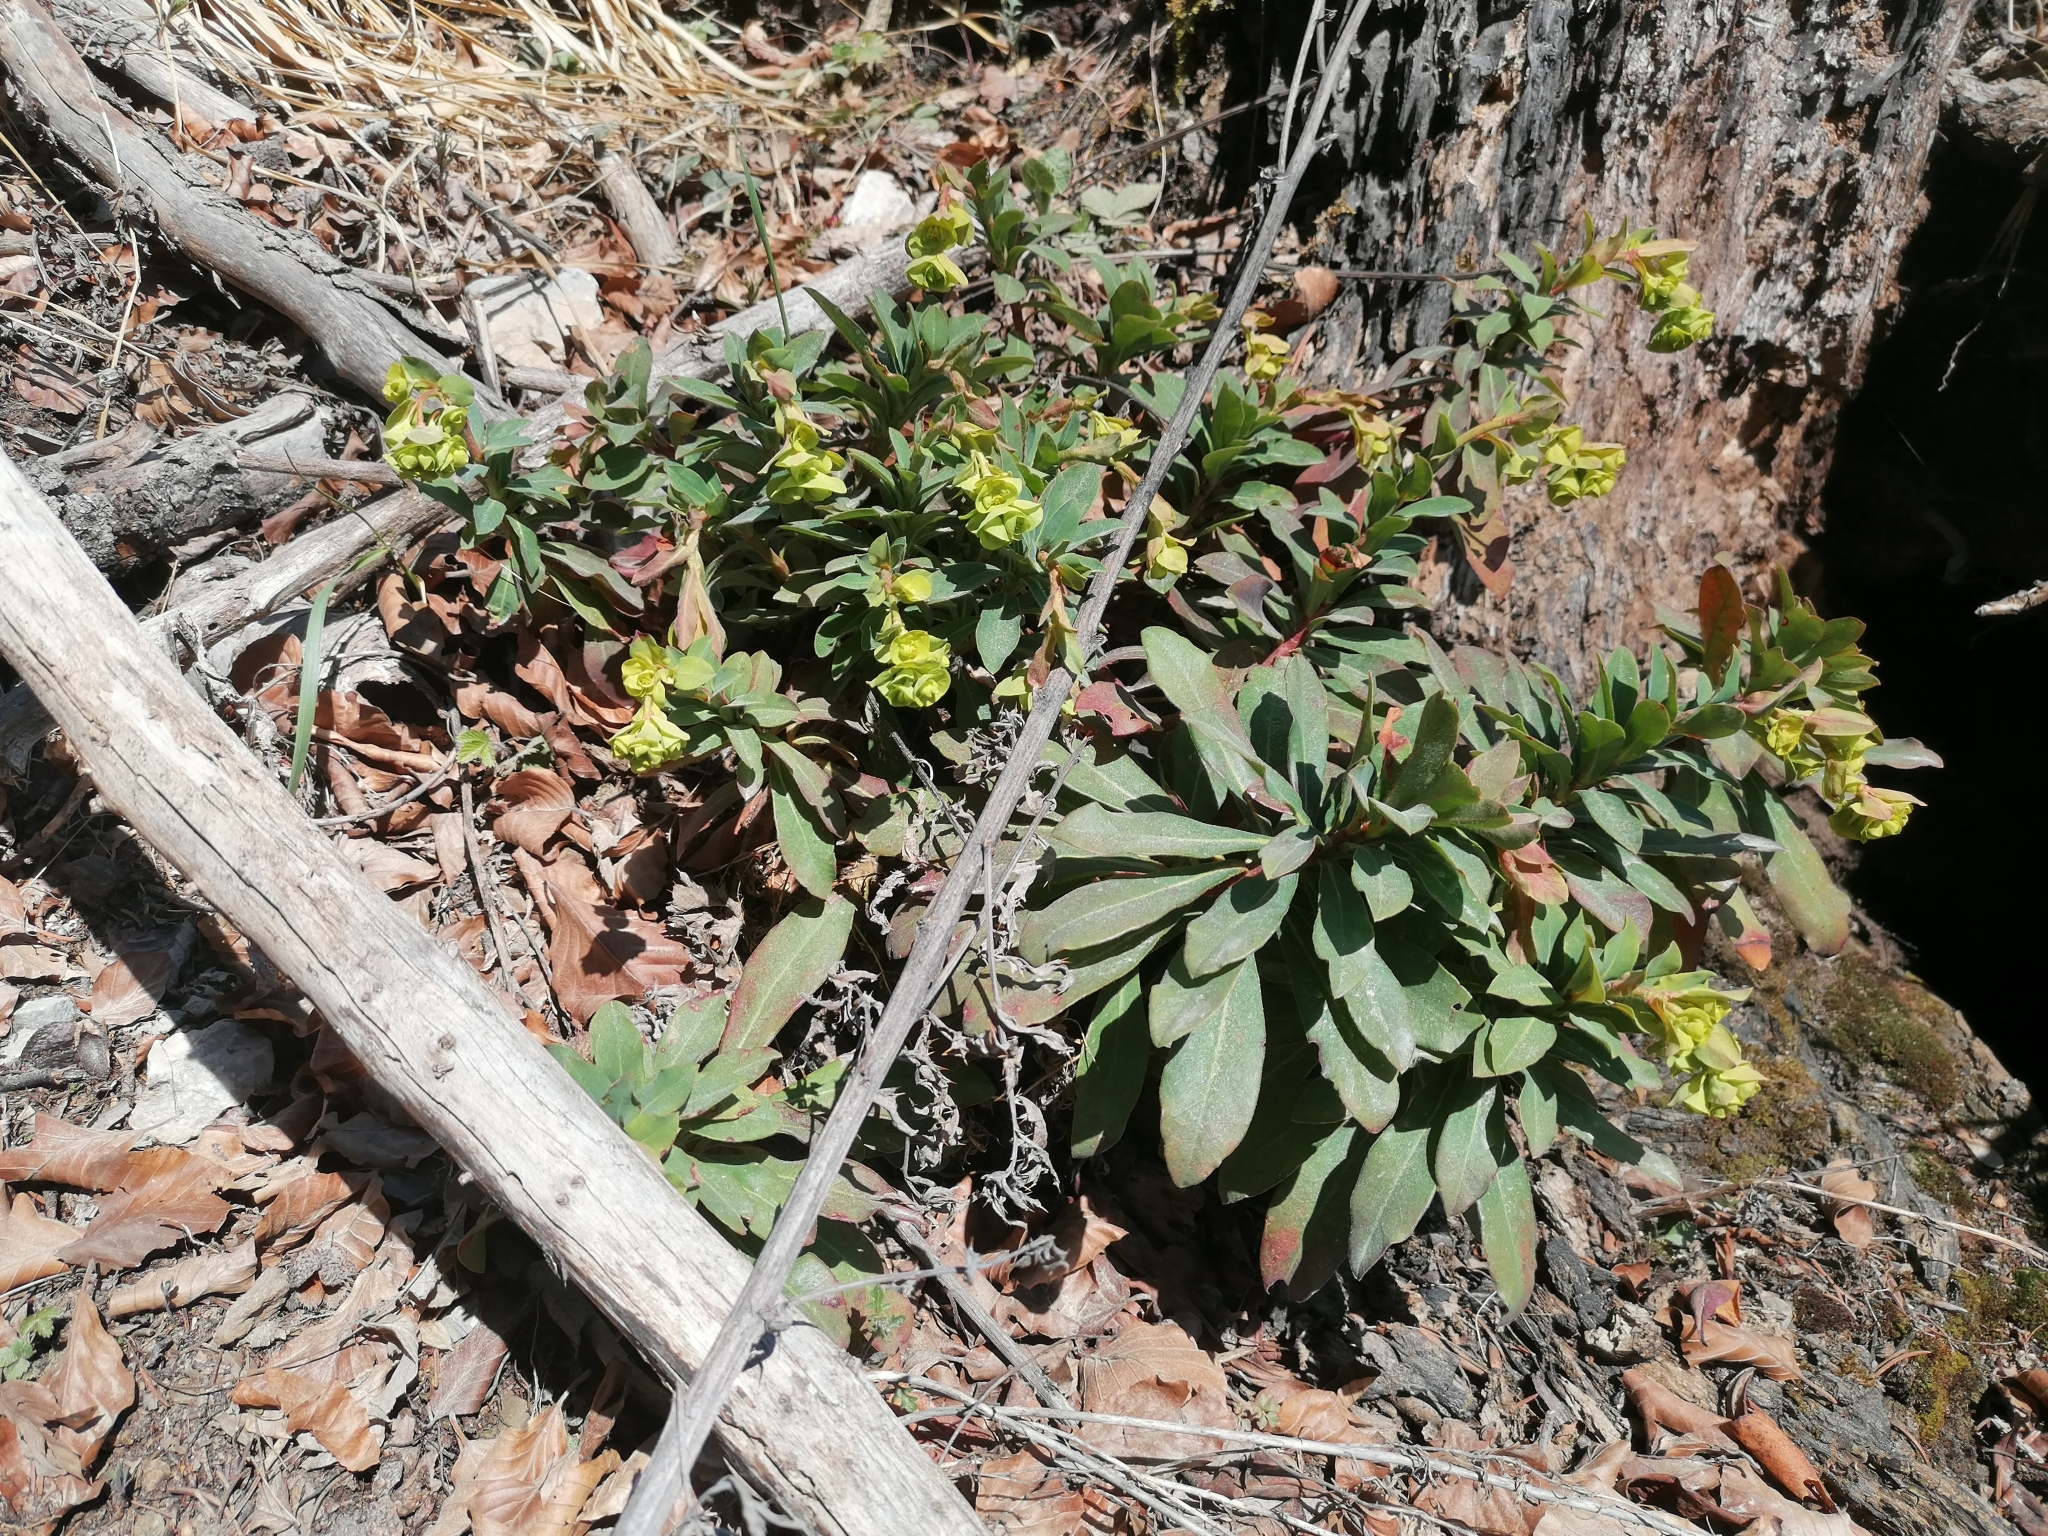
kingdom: Plantae
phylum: Tracheophyta
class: Magnoliopsida
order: Malpighiales
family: Euphorbiaceae
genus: Euphorbia
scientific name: Euphorbia amygdaloides
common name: Wood spurge
